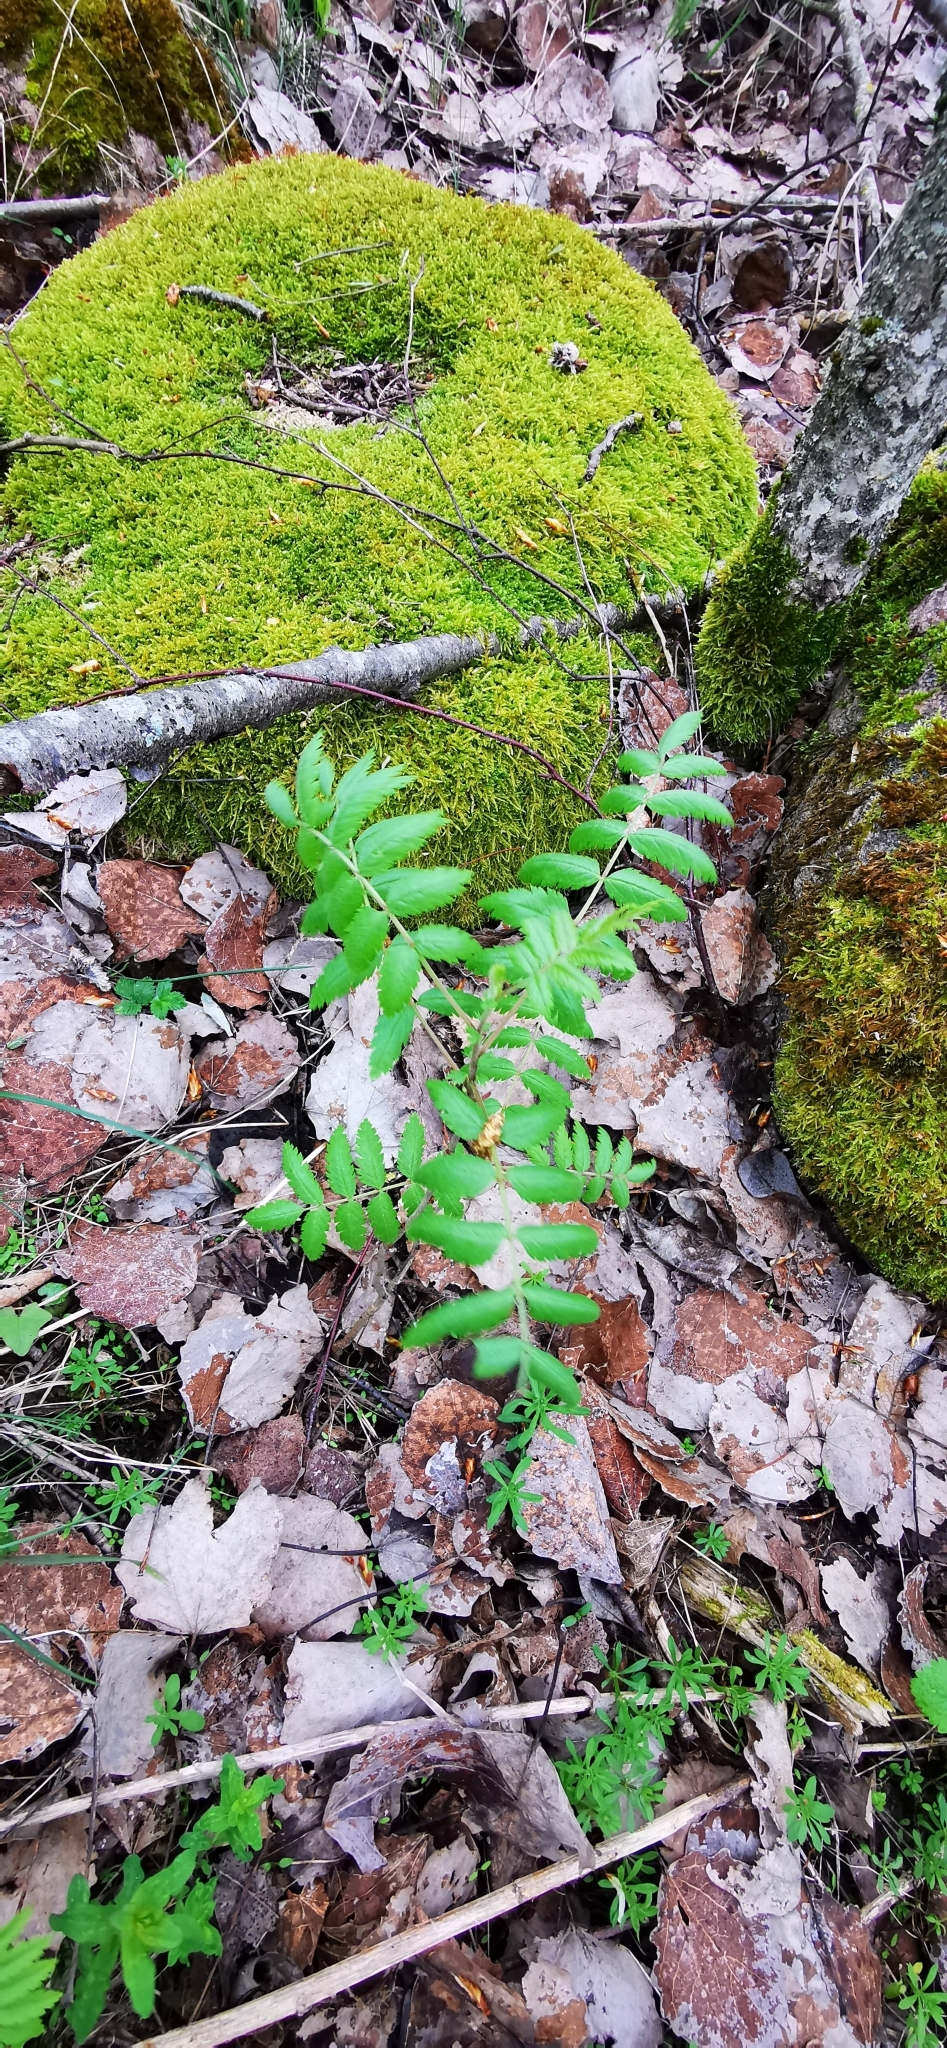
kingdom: Plantae
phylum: Tracheophyta
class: Magnoliopsida
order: Rosales
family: Rosaceae
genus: Sorbus
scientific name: Sorbus aucuparia
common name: Rowan
